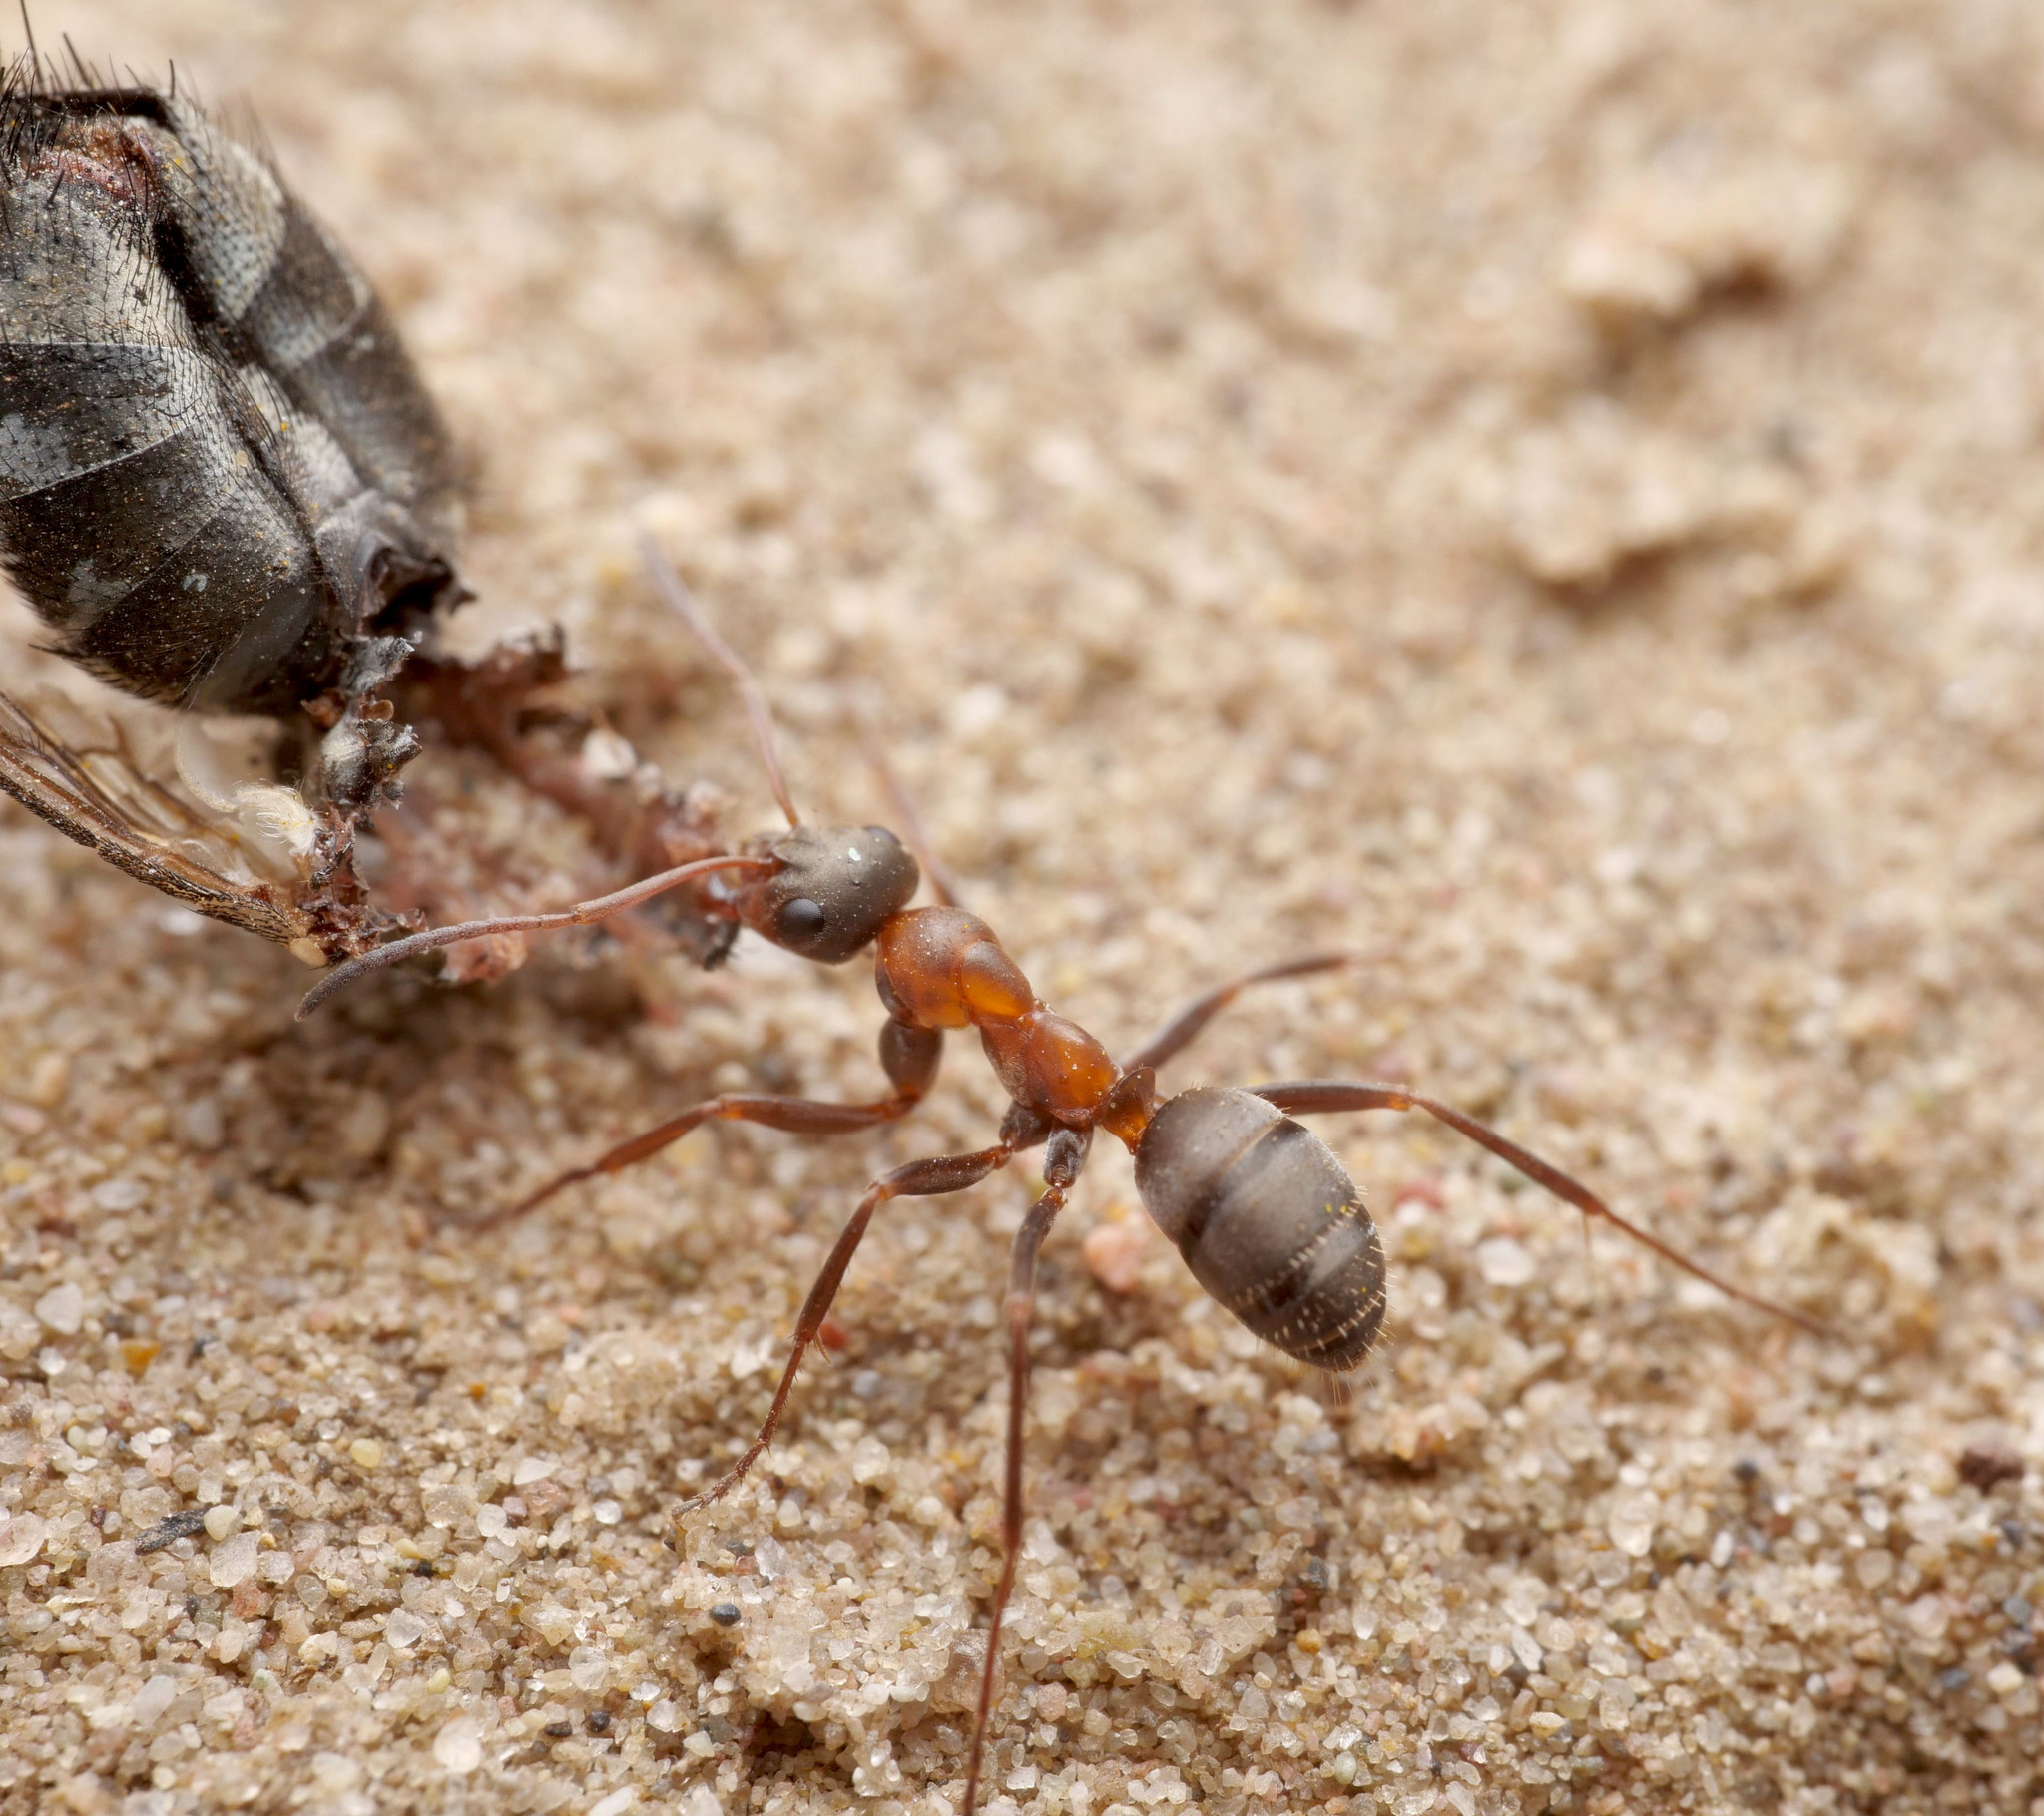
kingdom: Animalia
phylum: Arthropoda
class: Insecta
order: Hymenoptera
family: Formicidae
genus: Formica
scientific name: Formica rufibarbis
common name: Red barbed ant
